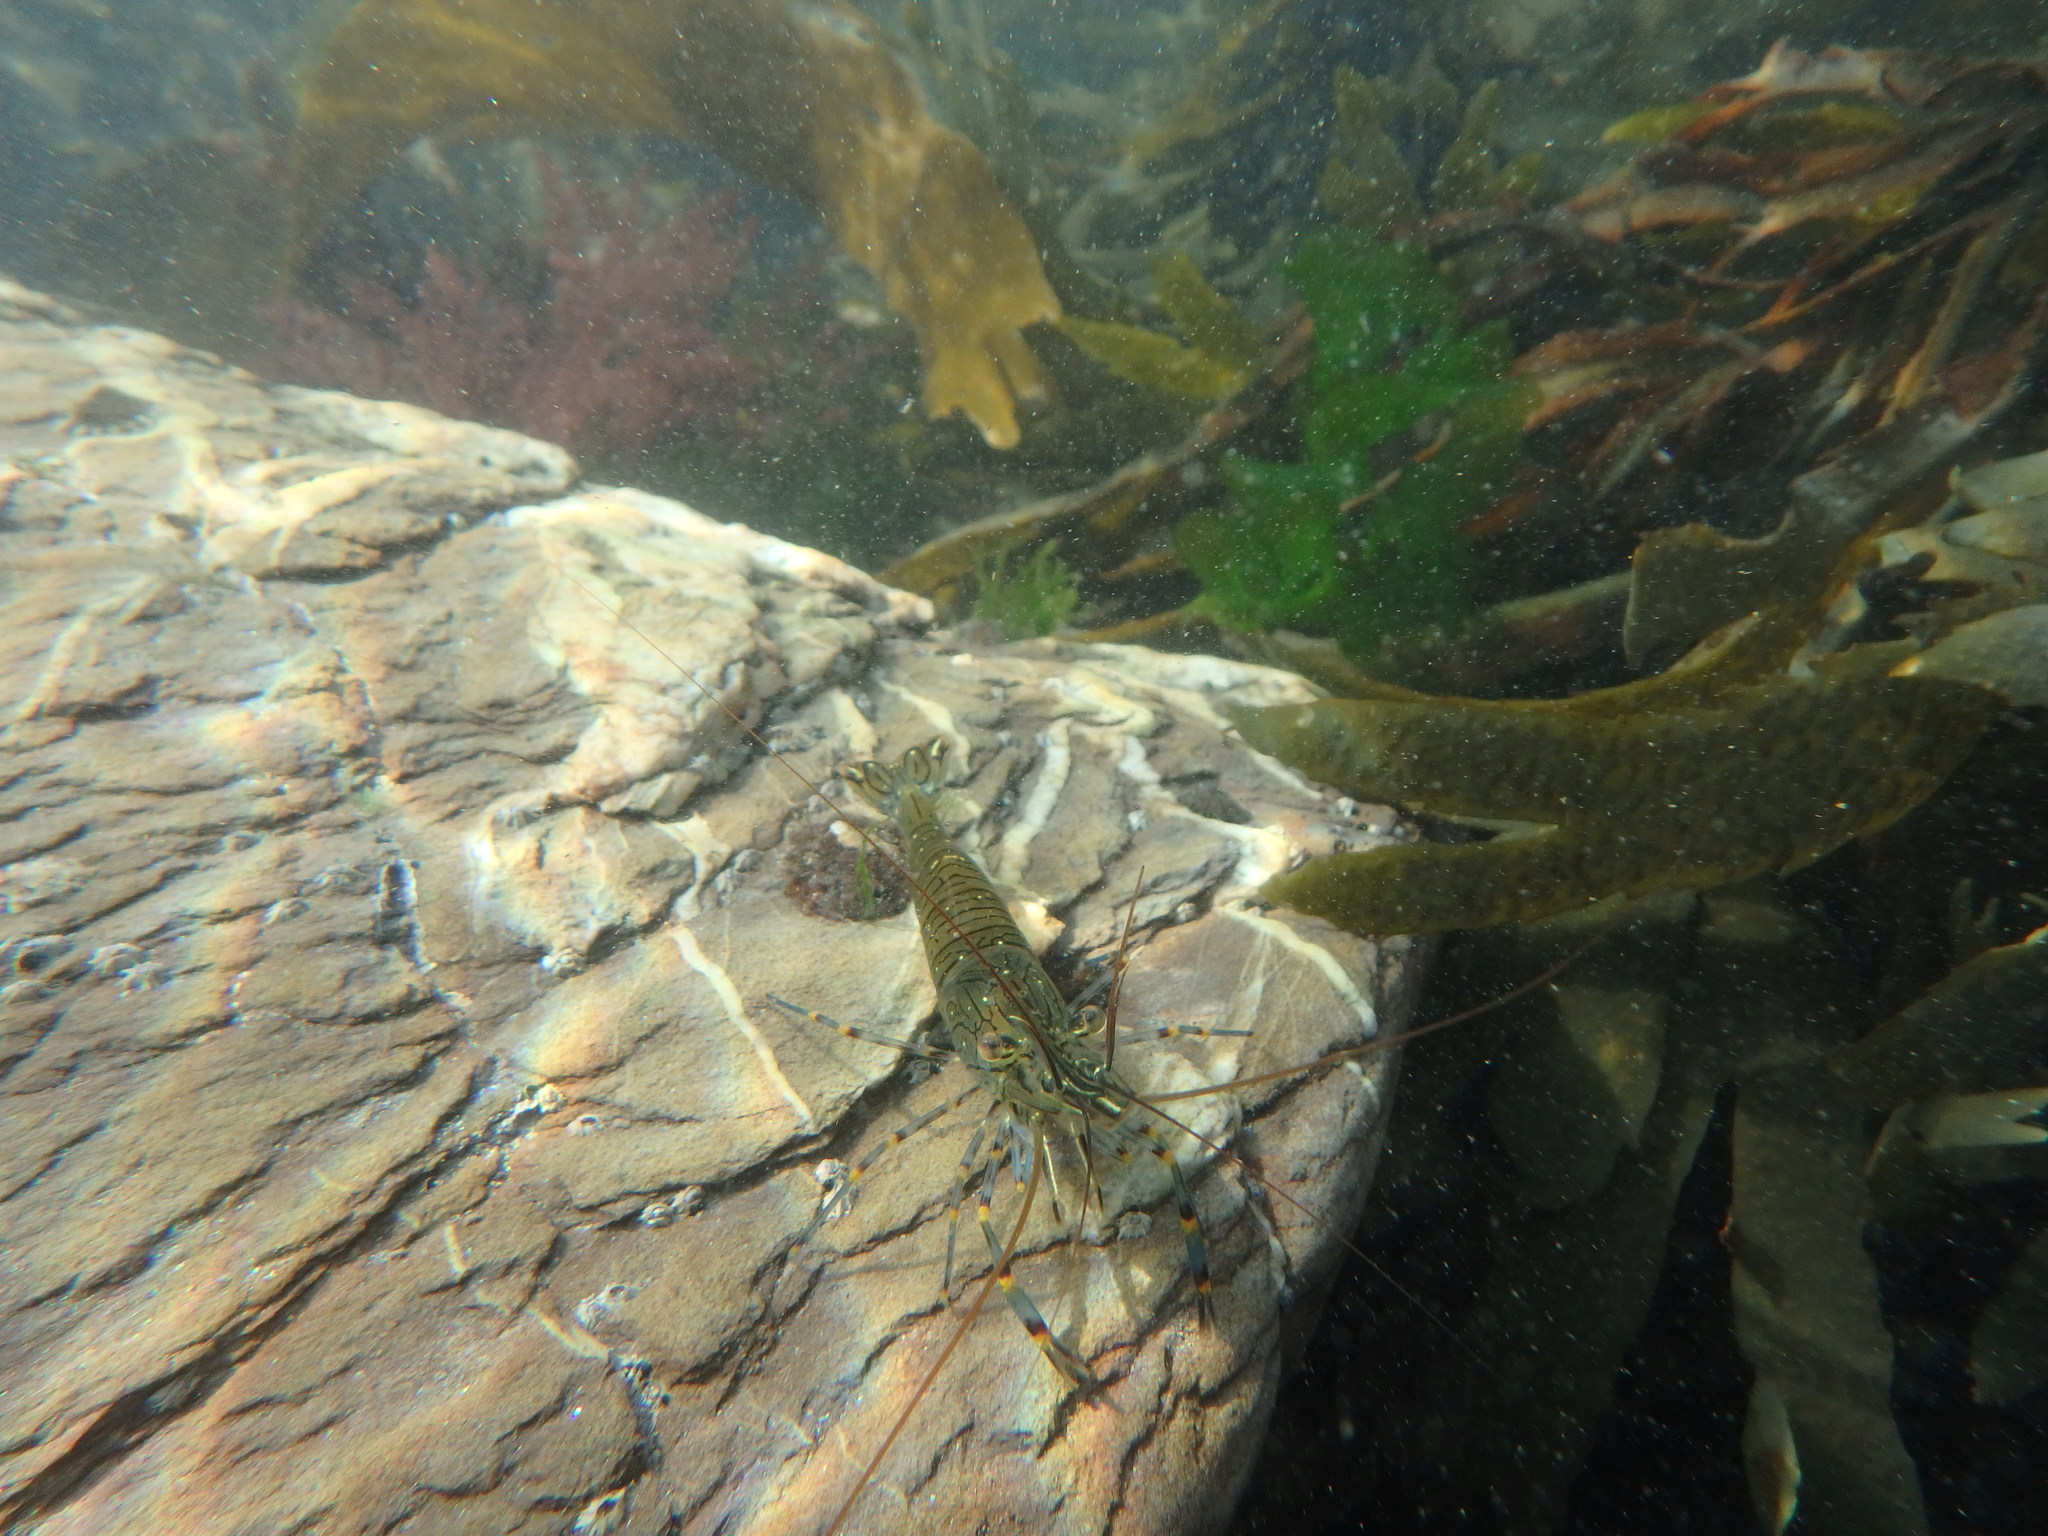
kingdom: Animalia
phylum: Arthropoda
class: Malacostraca
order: Decapoda
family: Palaemonidae
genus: Palaemon
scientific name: Palaemon serratus
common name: Common prawn
